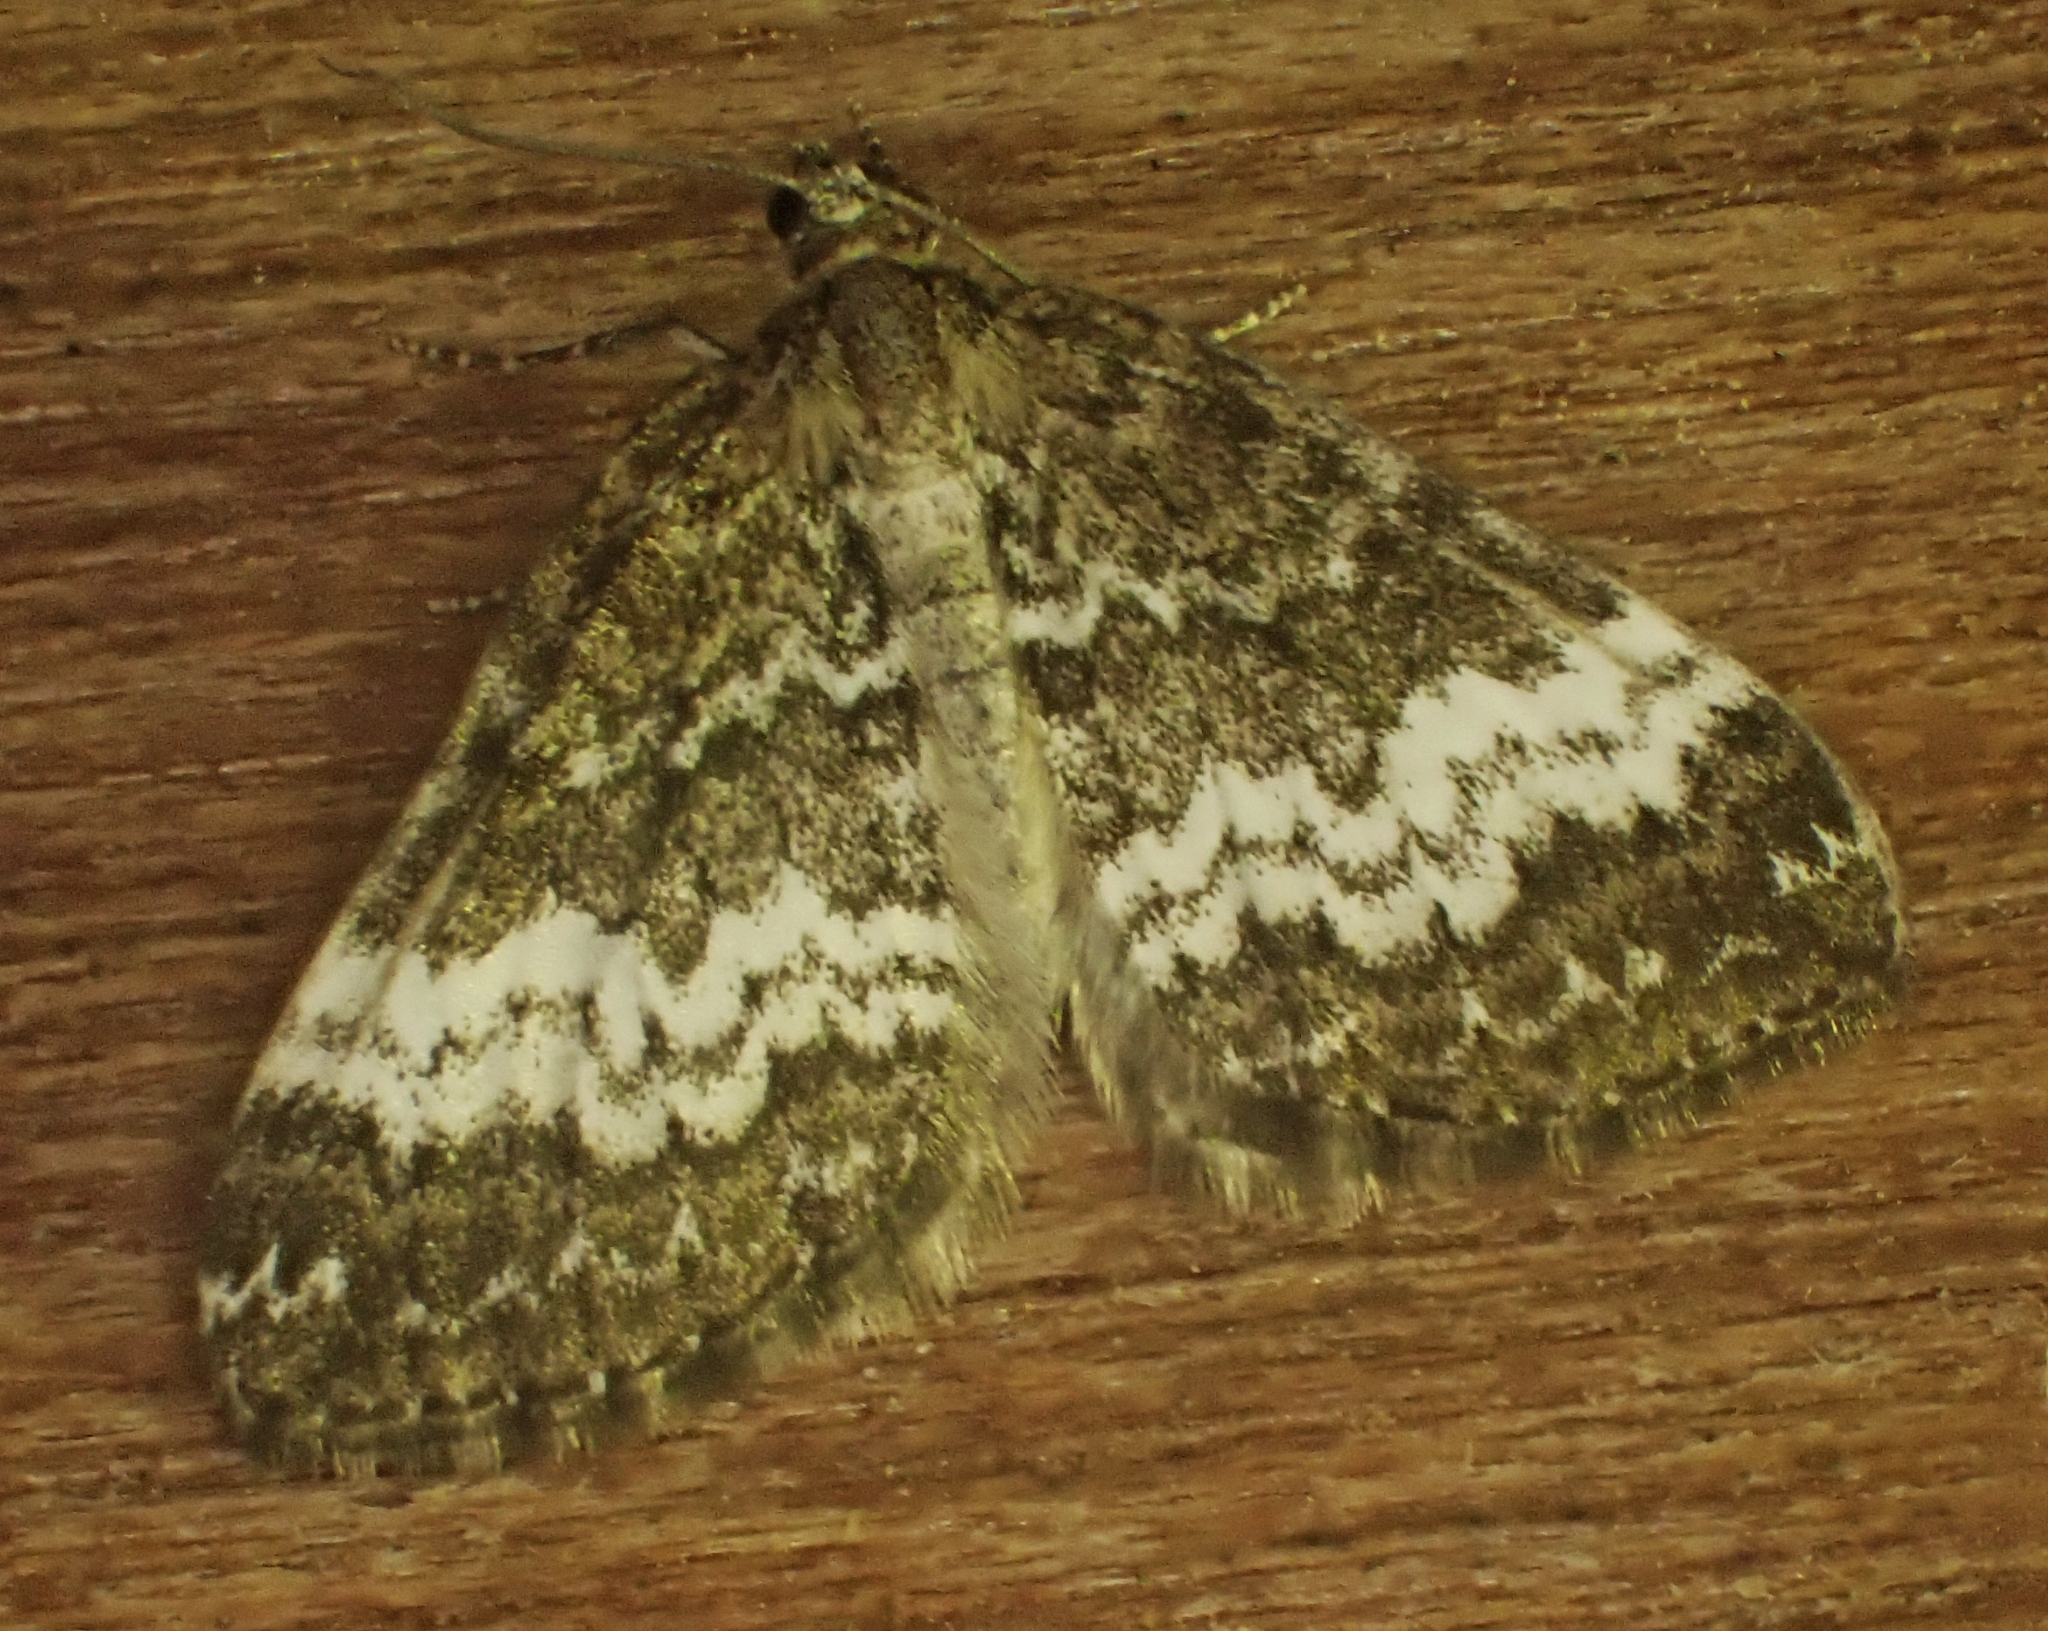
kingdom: Animalia
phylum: Arthropoda
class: Insecta
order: Lepidoptera
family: Geometridae
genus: Perizoma
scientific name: Perizoma affinitata
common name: Rivulet
